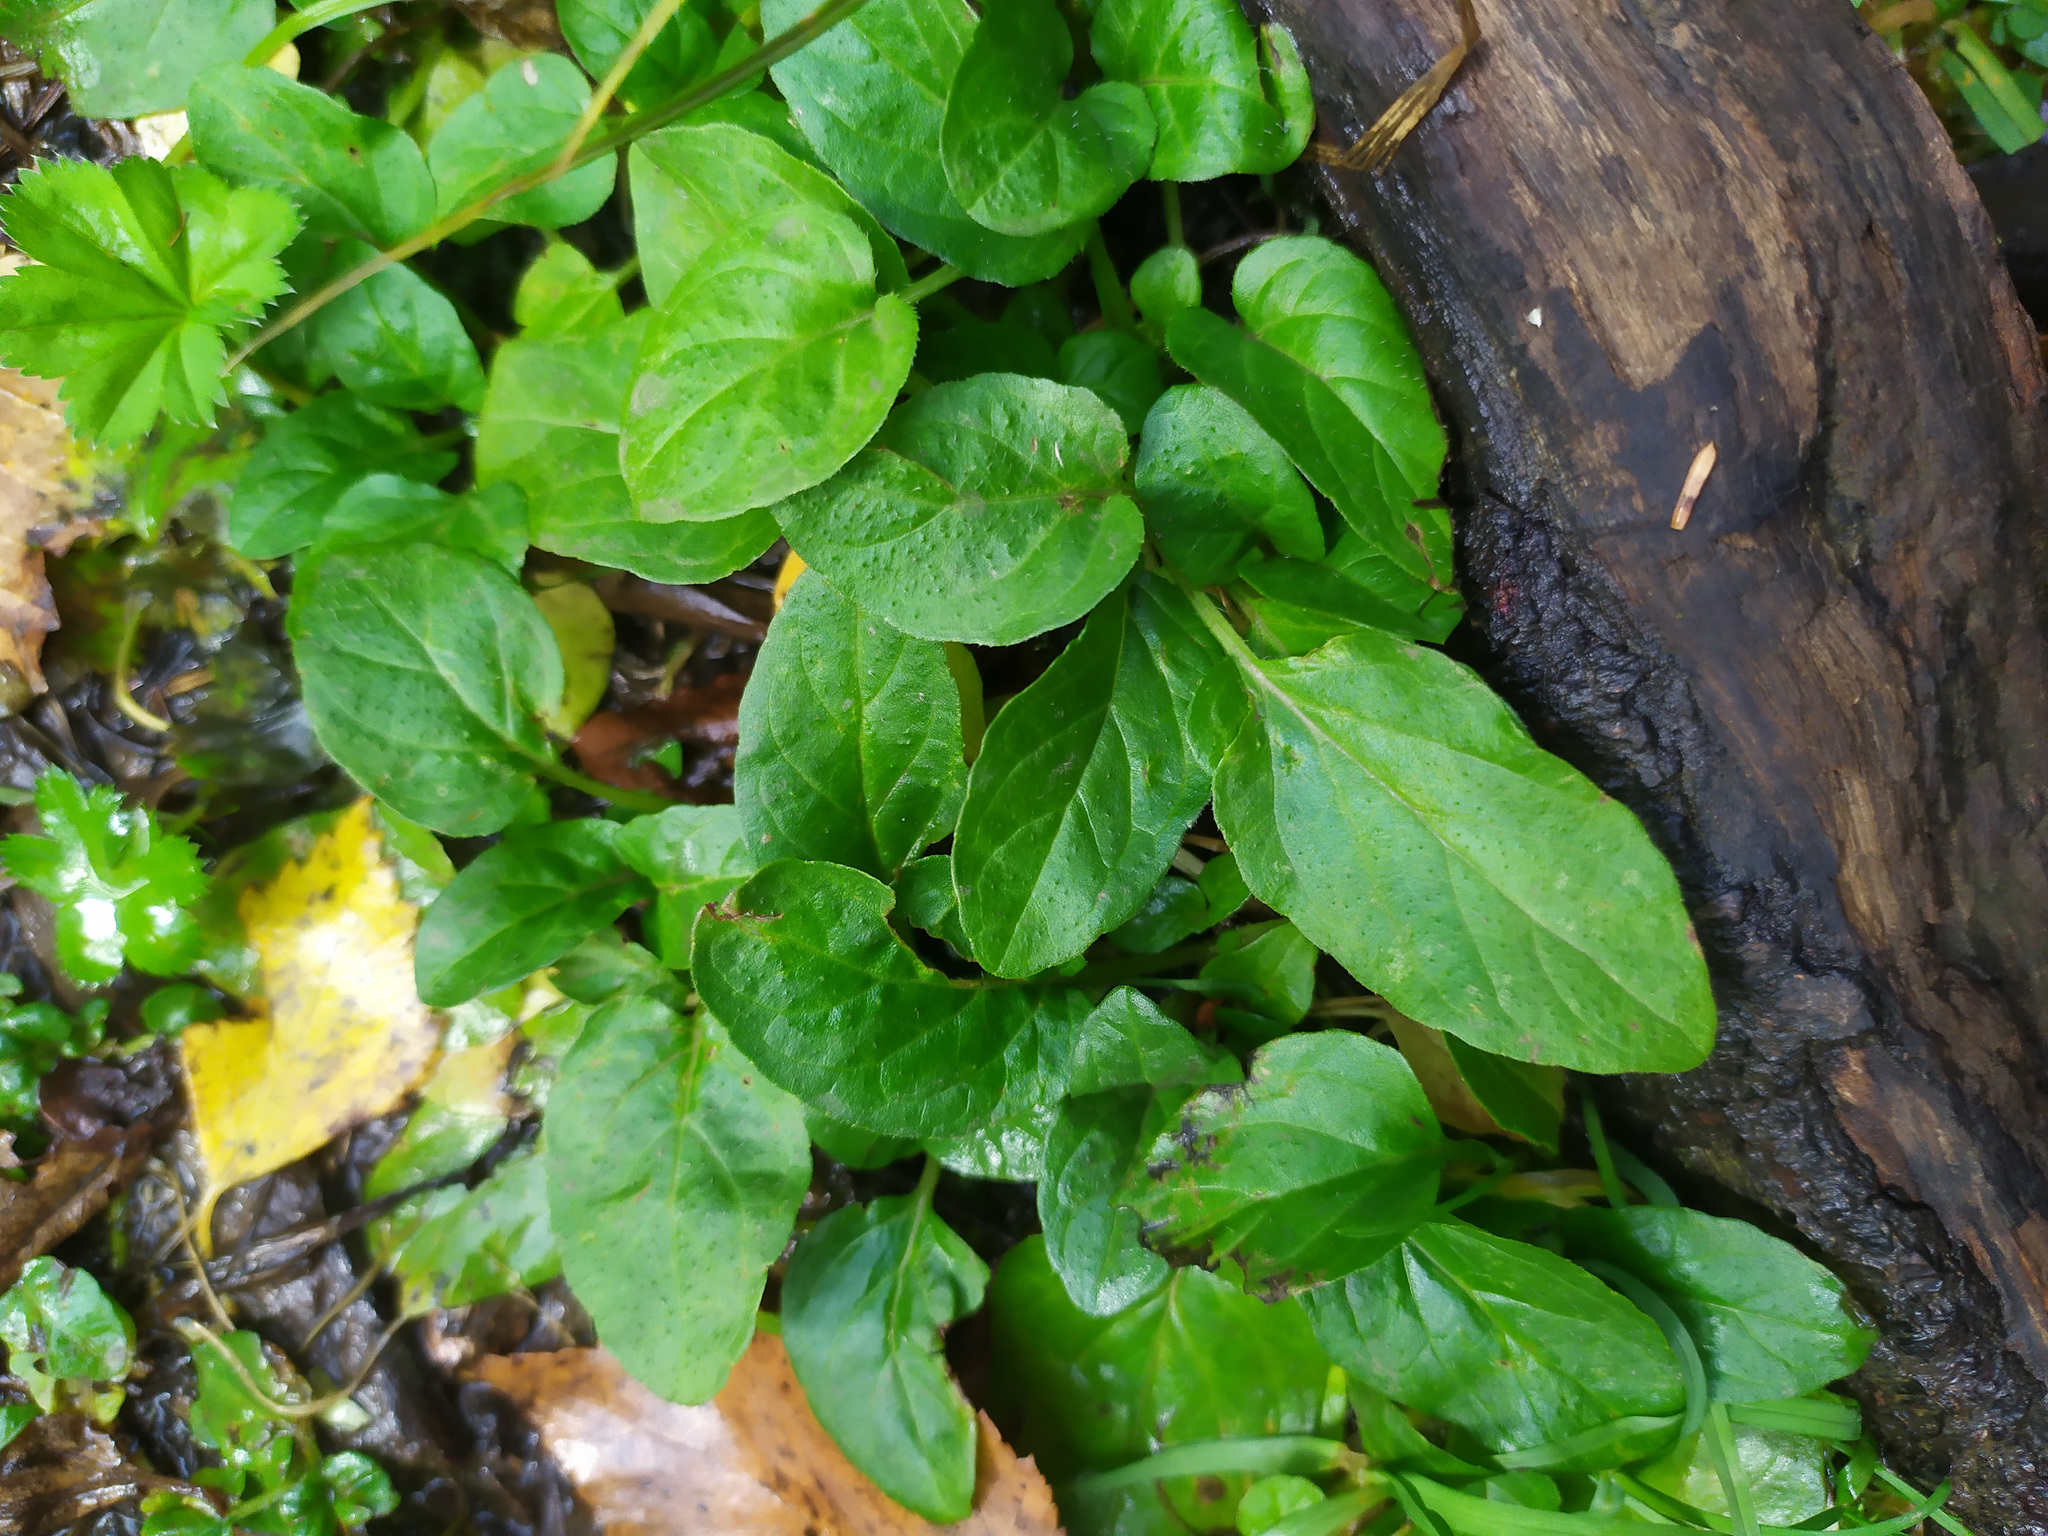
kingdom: Plantae
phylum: Tracheophyta
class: Magnoliopsida
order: Lamiales
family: Lamiaceae
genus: Prunella
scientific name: Prunella vulgaris
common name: Heal-all
